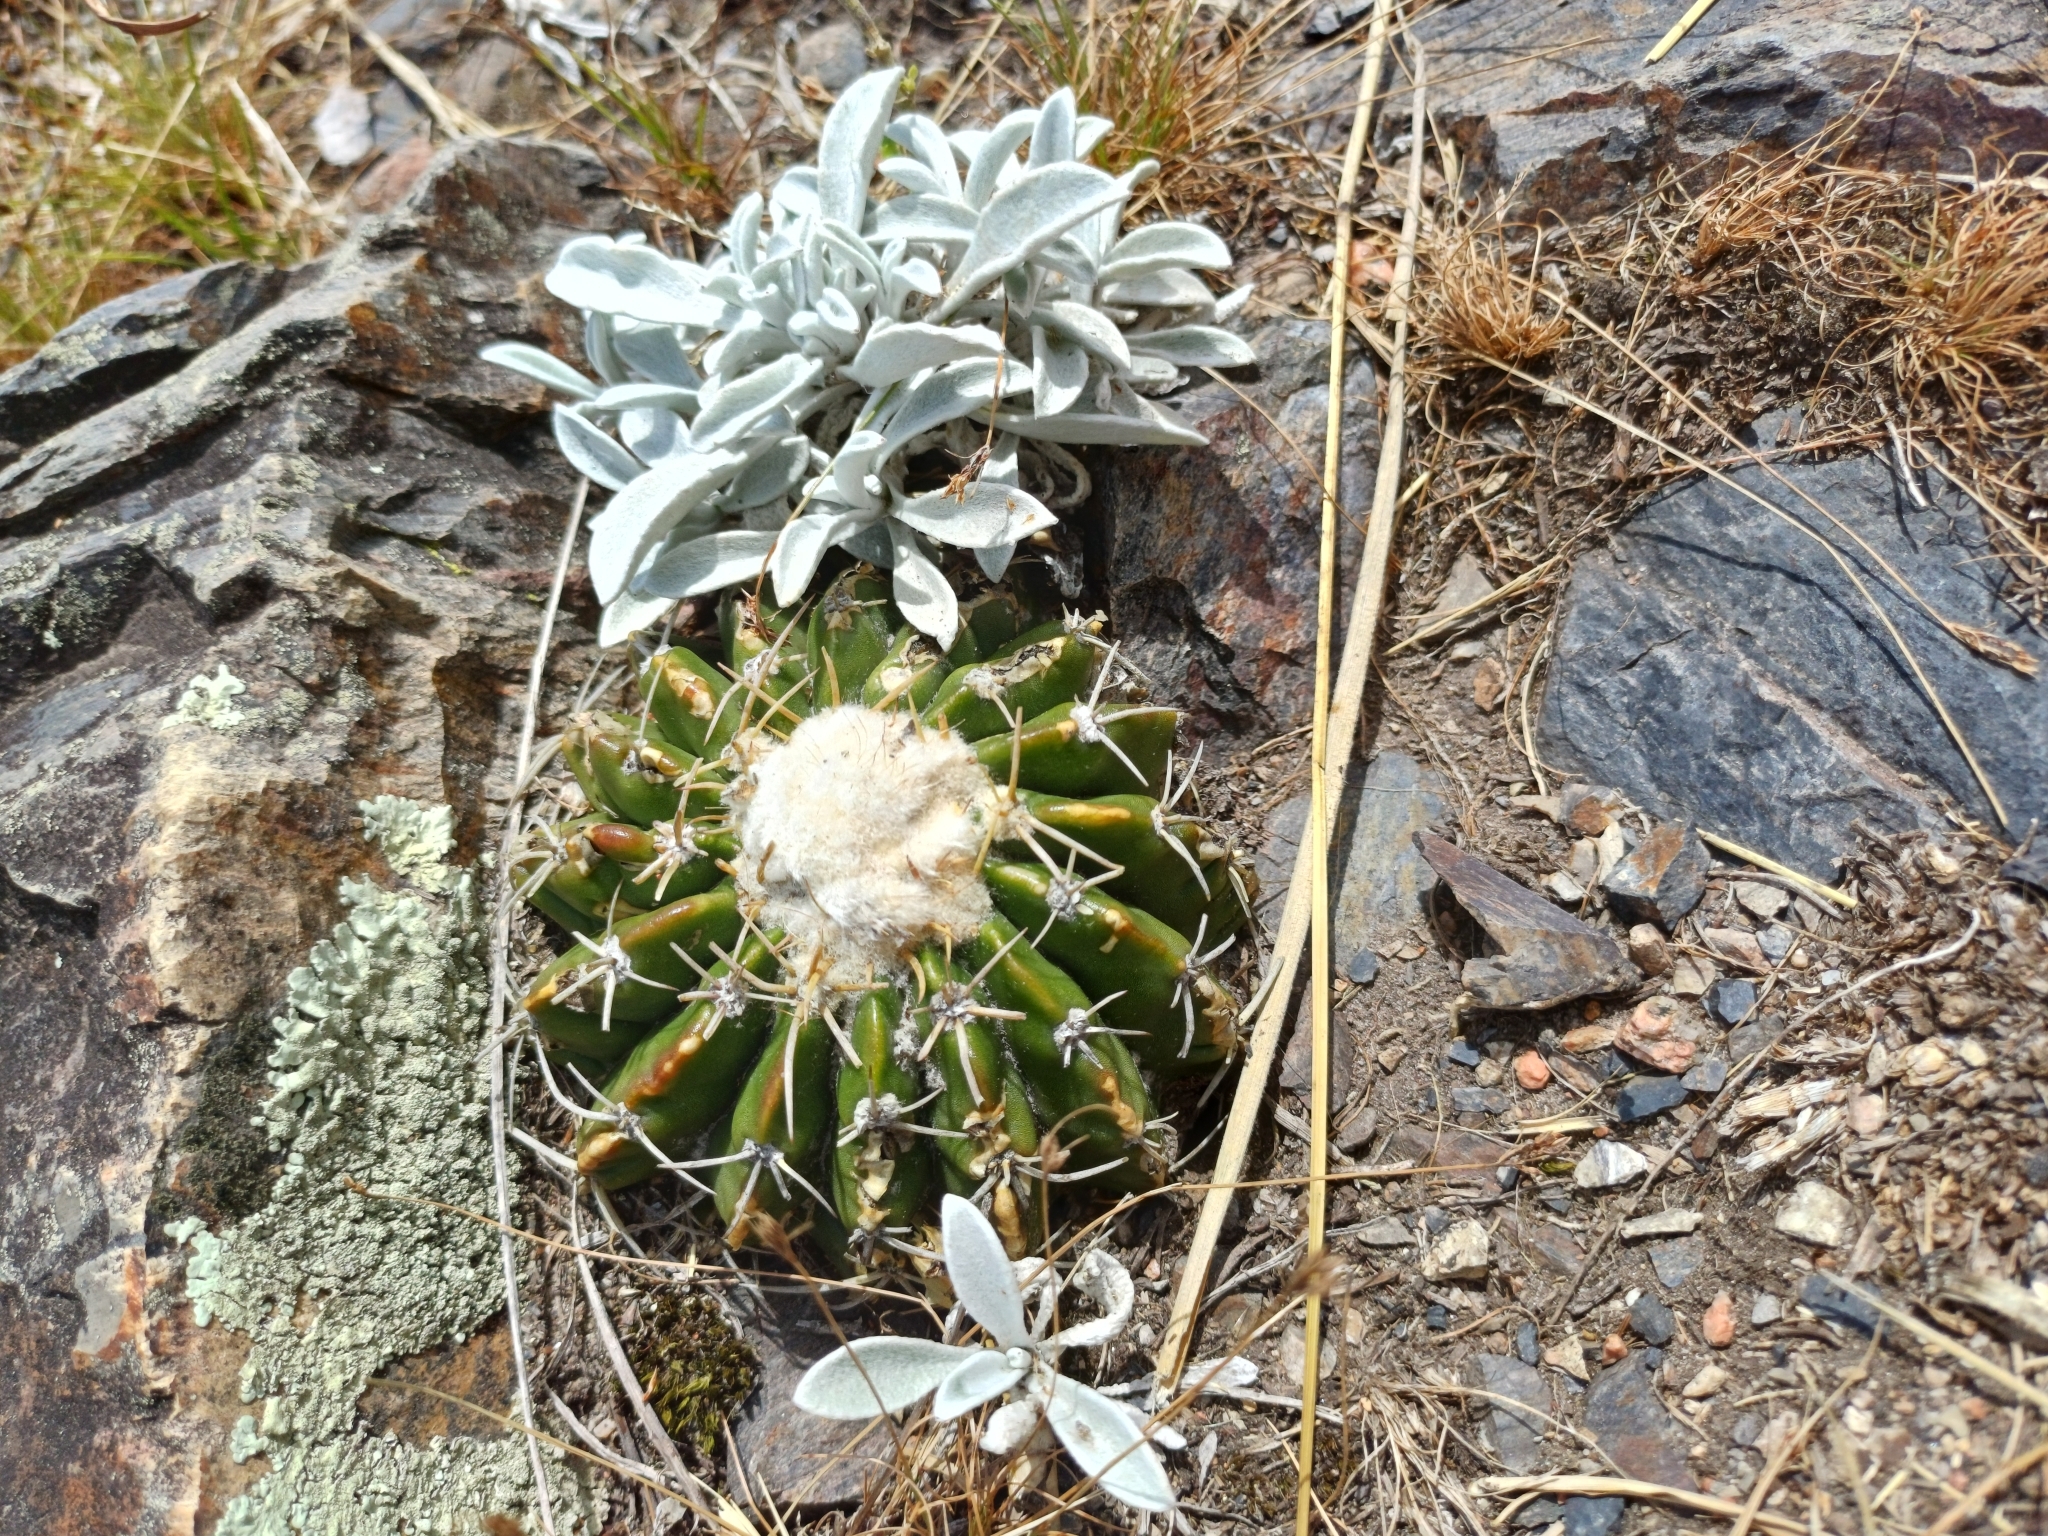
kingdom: Plantae
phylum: Tracheophyta
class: Magnoliopsida
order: Caryophyllales
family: Cactaceae
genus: Parodia
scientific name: Parodia erinacea
